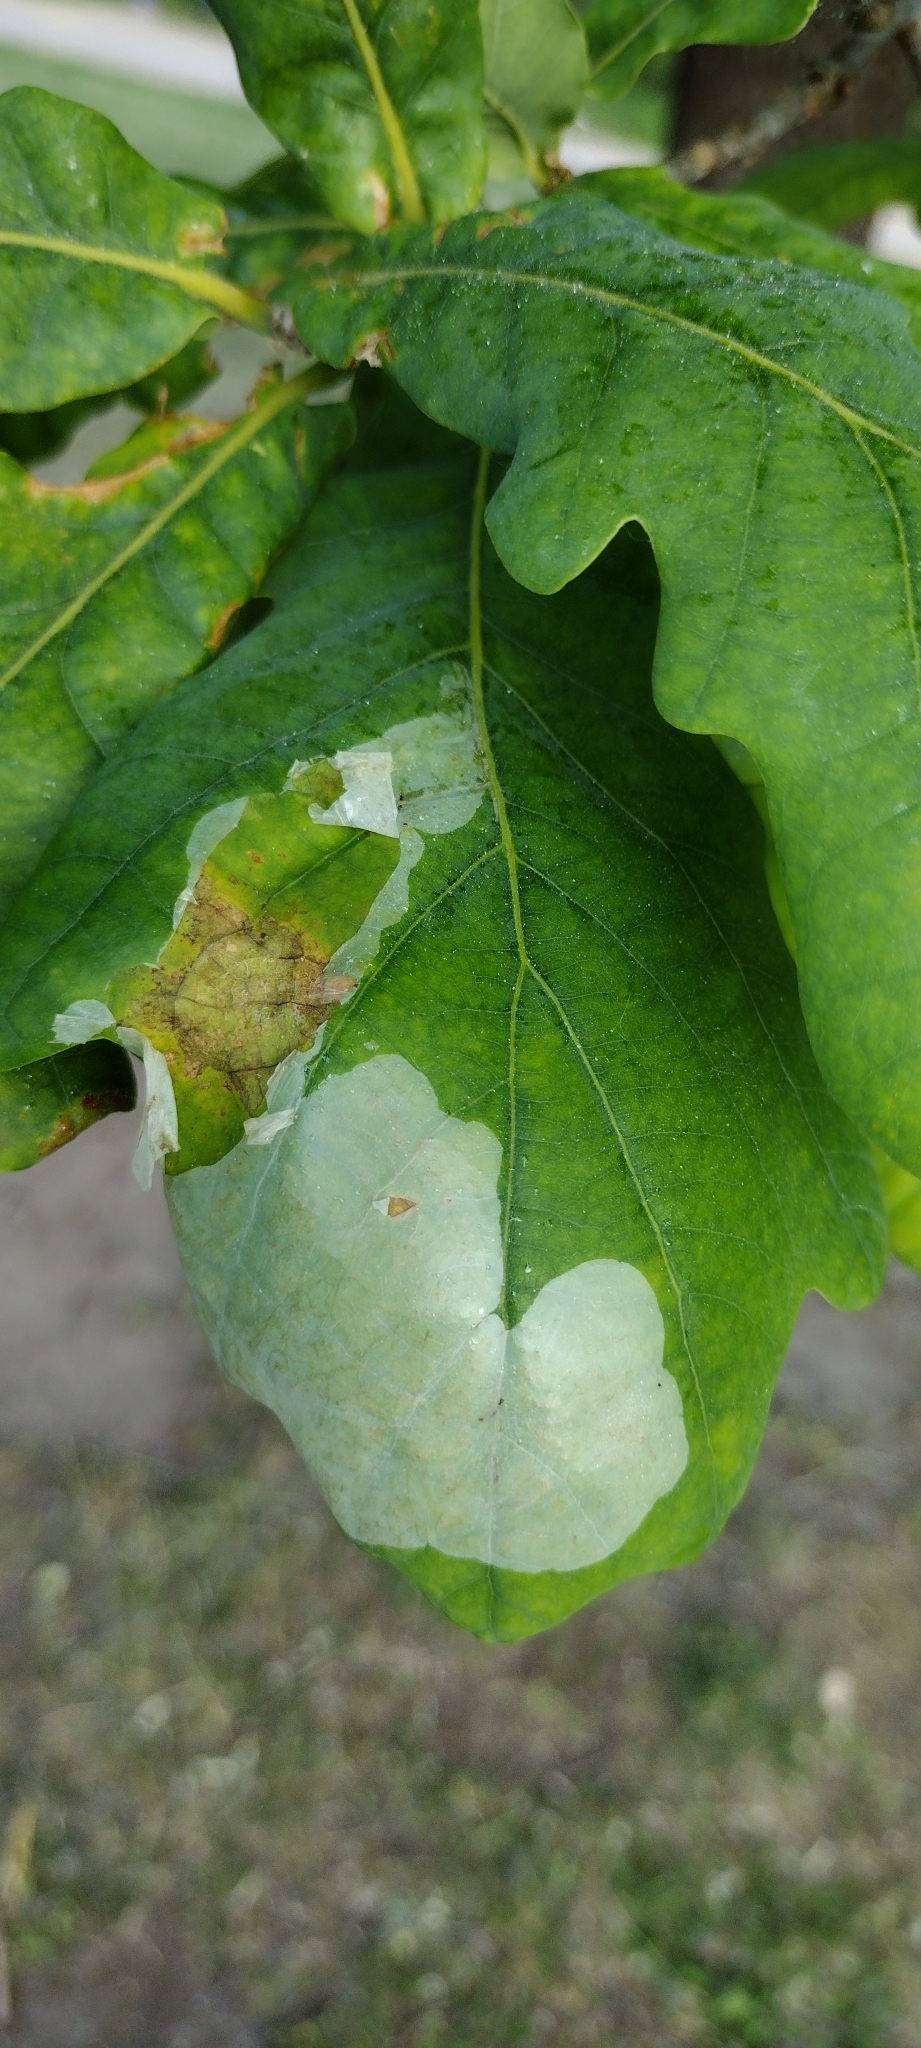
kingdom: Animalia
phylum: Arthropoda
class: Insecta
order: Lepidoptera
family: Gracillariidae
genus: Acrocercops
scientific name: Acrocercops brongniardella
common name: Brown oak slender
